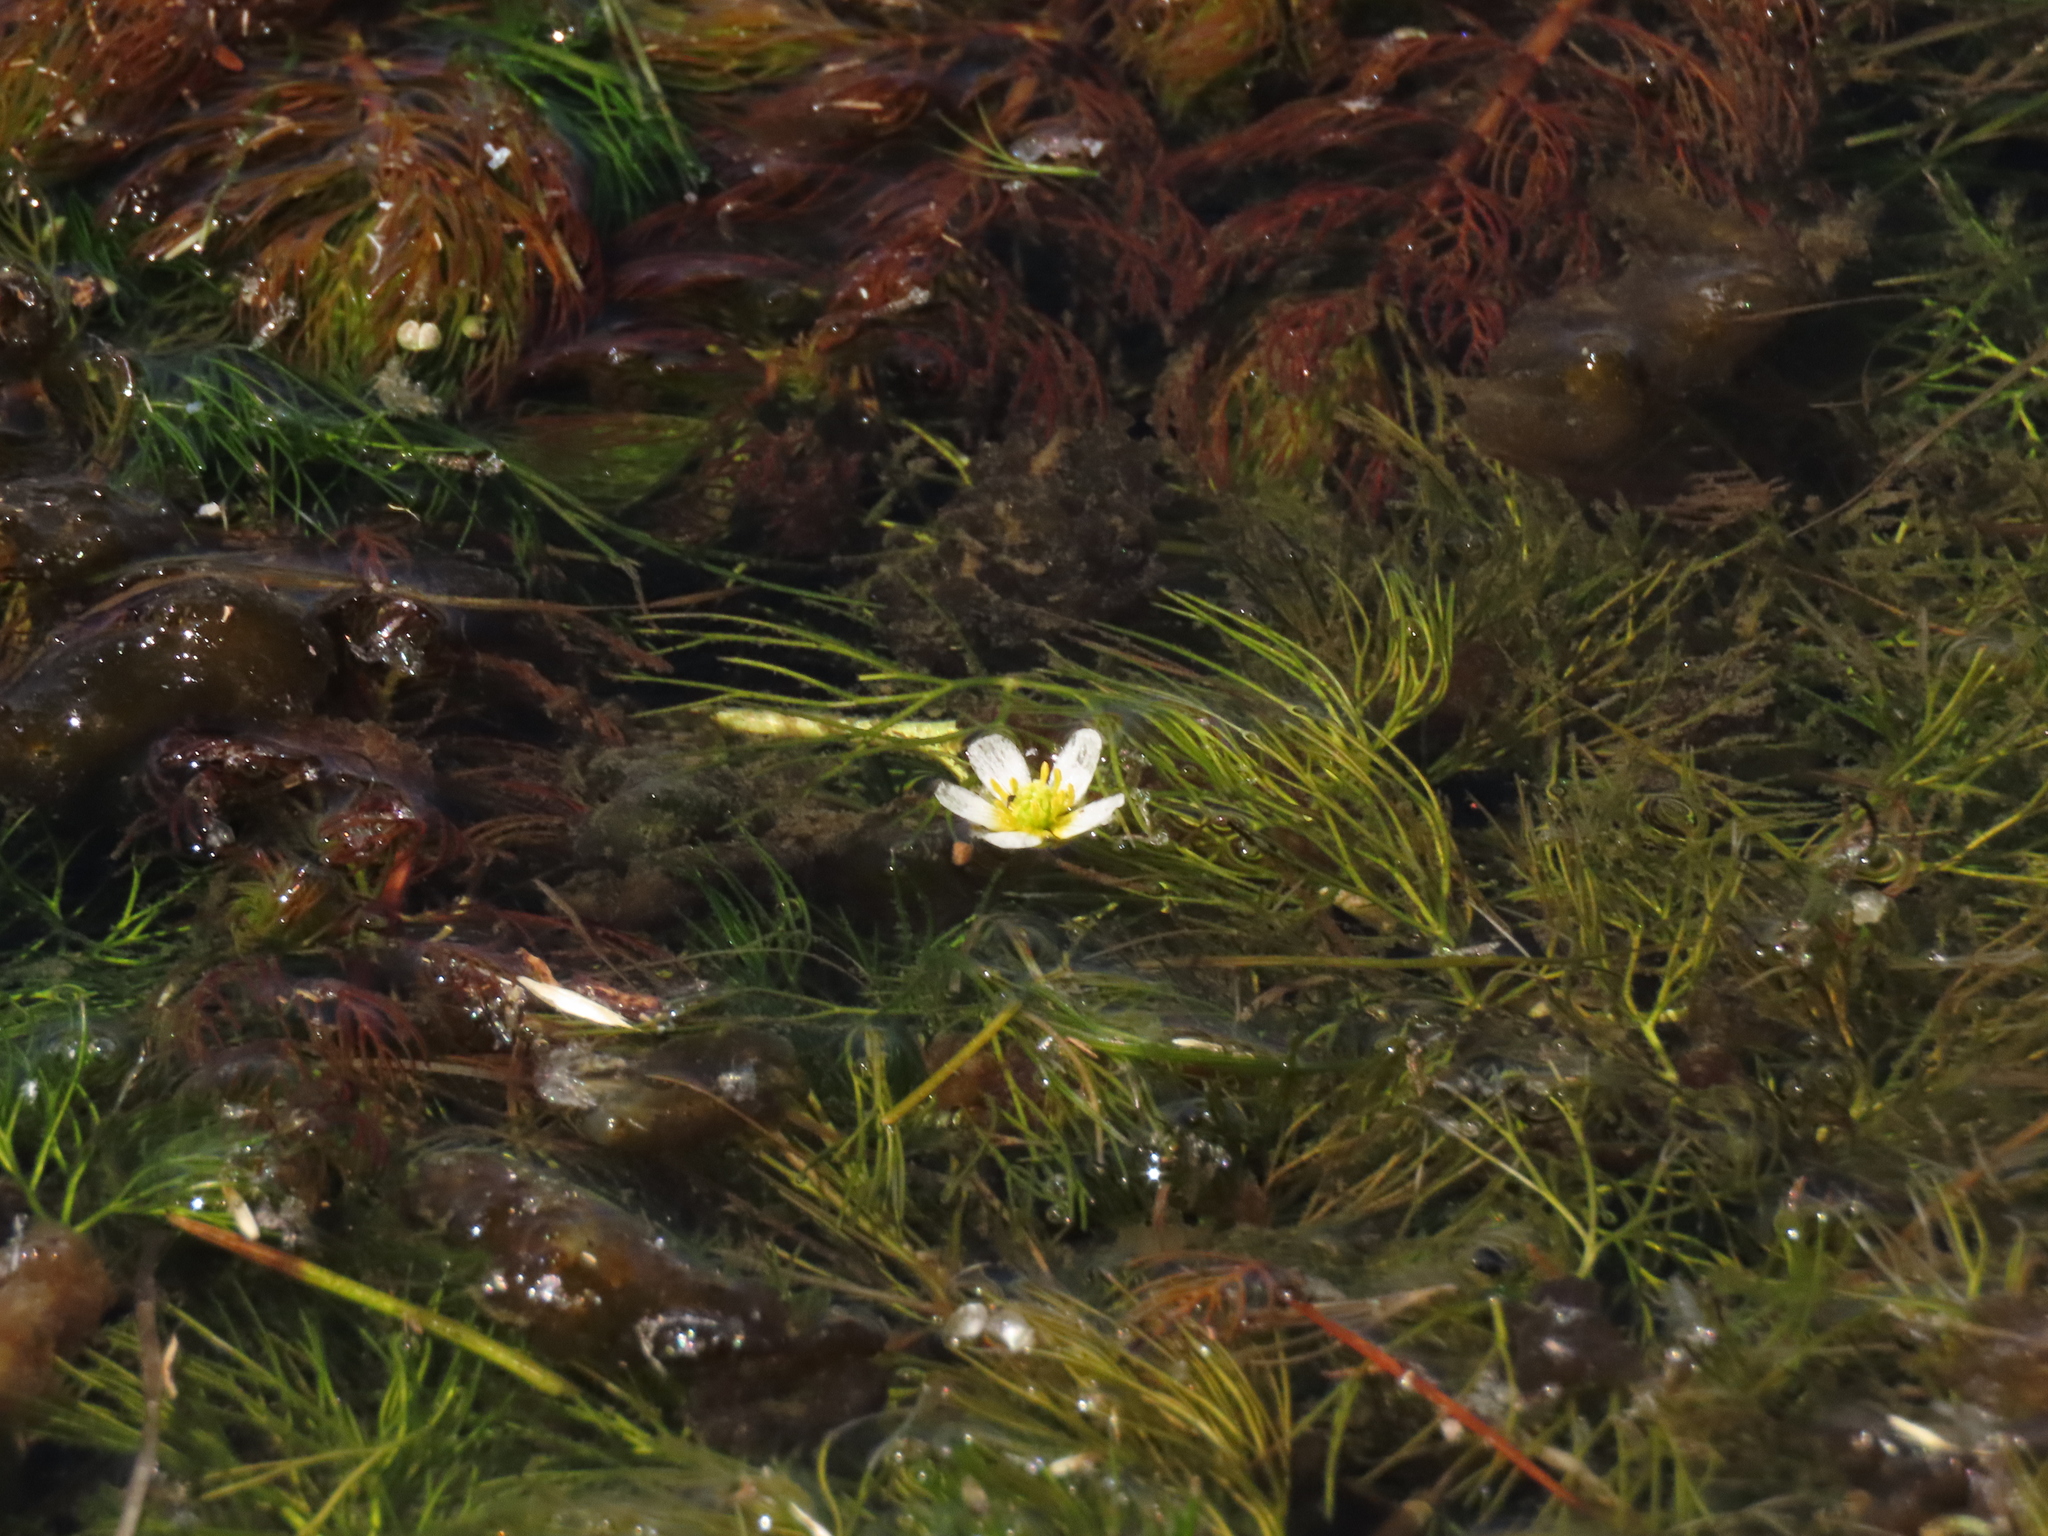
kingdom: Plantae
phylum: Tracheophyta
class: Magnoliopsida
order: Ranunculales
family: Ranunculaceae
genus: Ranunculus
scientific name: Ranunculus aquatilis
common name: Common water-crowfoot
